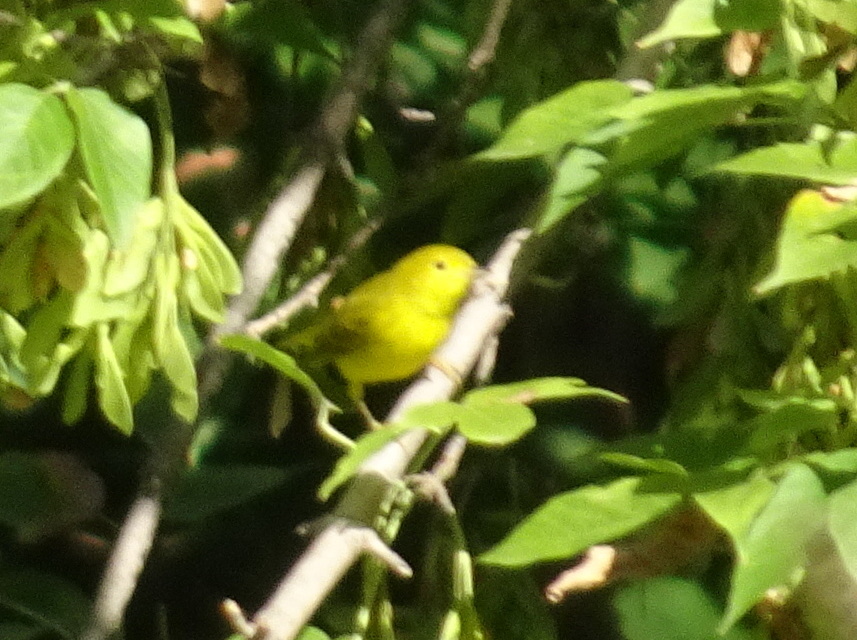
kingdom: Animalia
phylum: Chordata
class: Aves
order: Passeriformes
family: Parulidae
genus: Setophaga
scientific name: Setophaga petechia
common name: Yellow warbler
